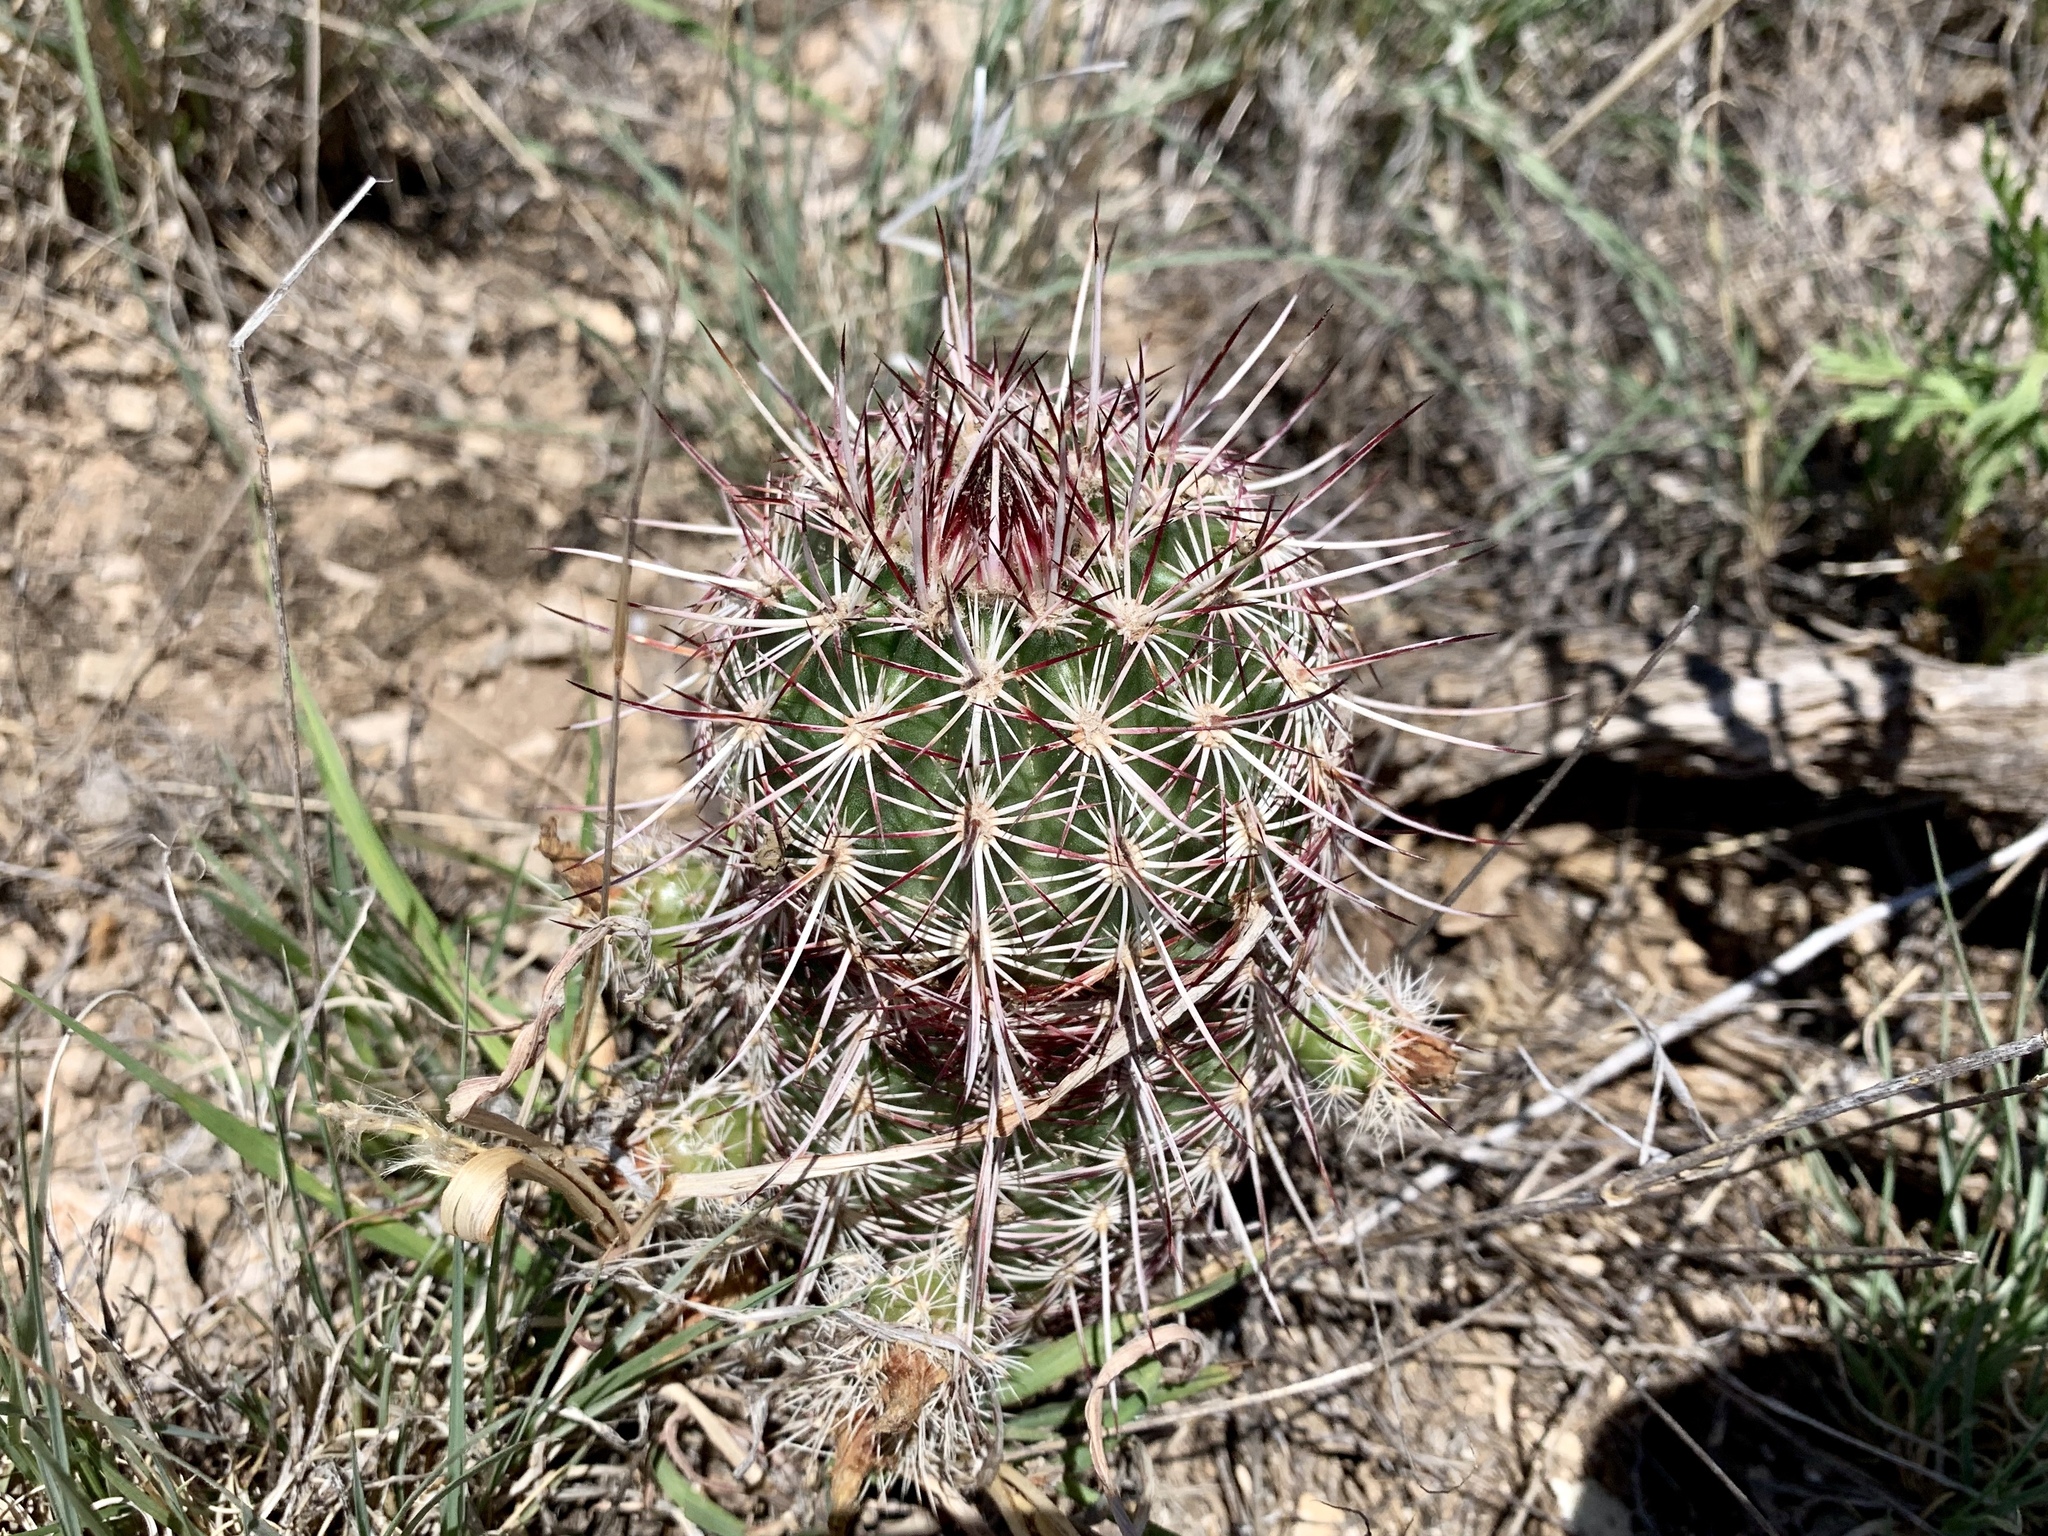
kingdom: Plantae
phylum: Tracheophyta
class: Magnoliopsida
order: Caryophyllales
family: Cactaceae
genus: Echinocereus
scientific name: Echinocereus viridiflorus
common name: Nylon hedgehog cactus
